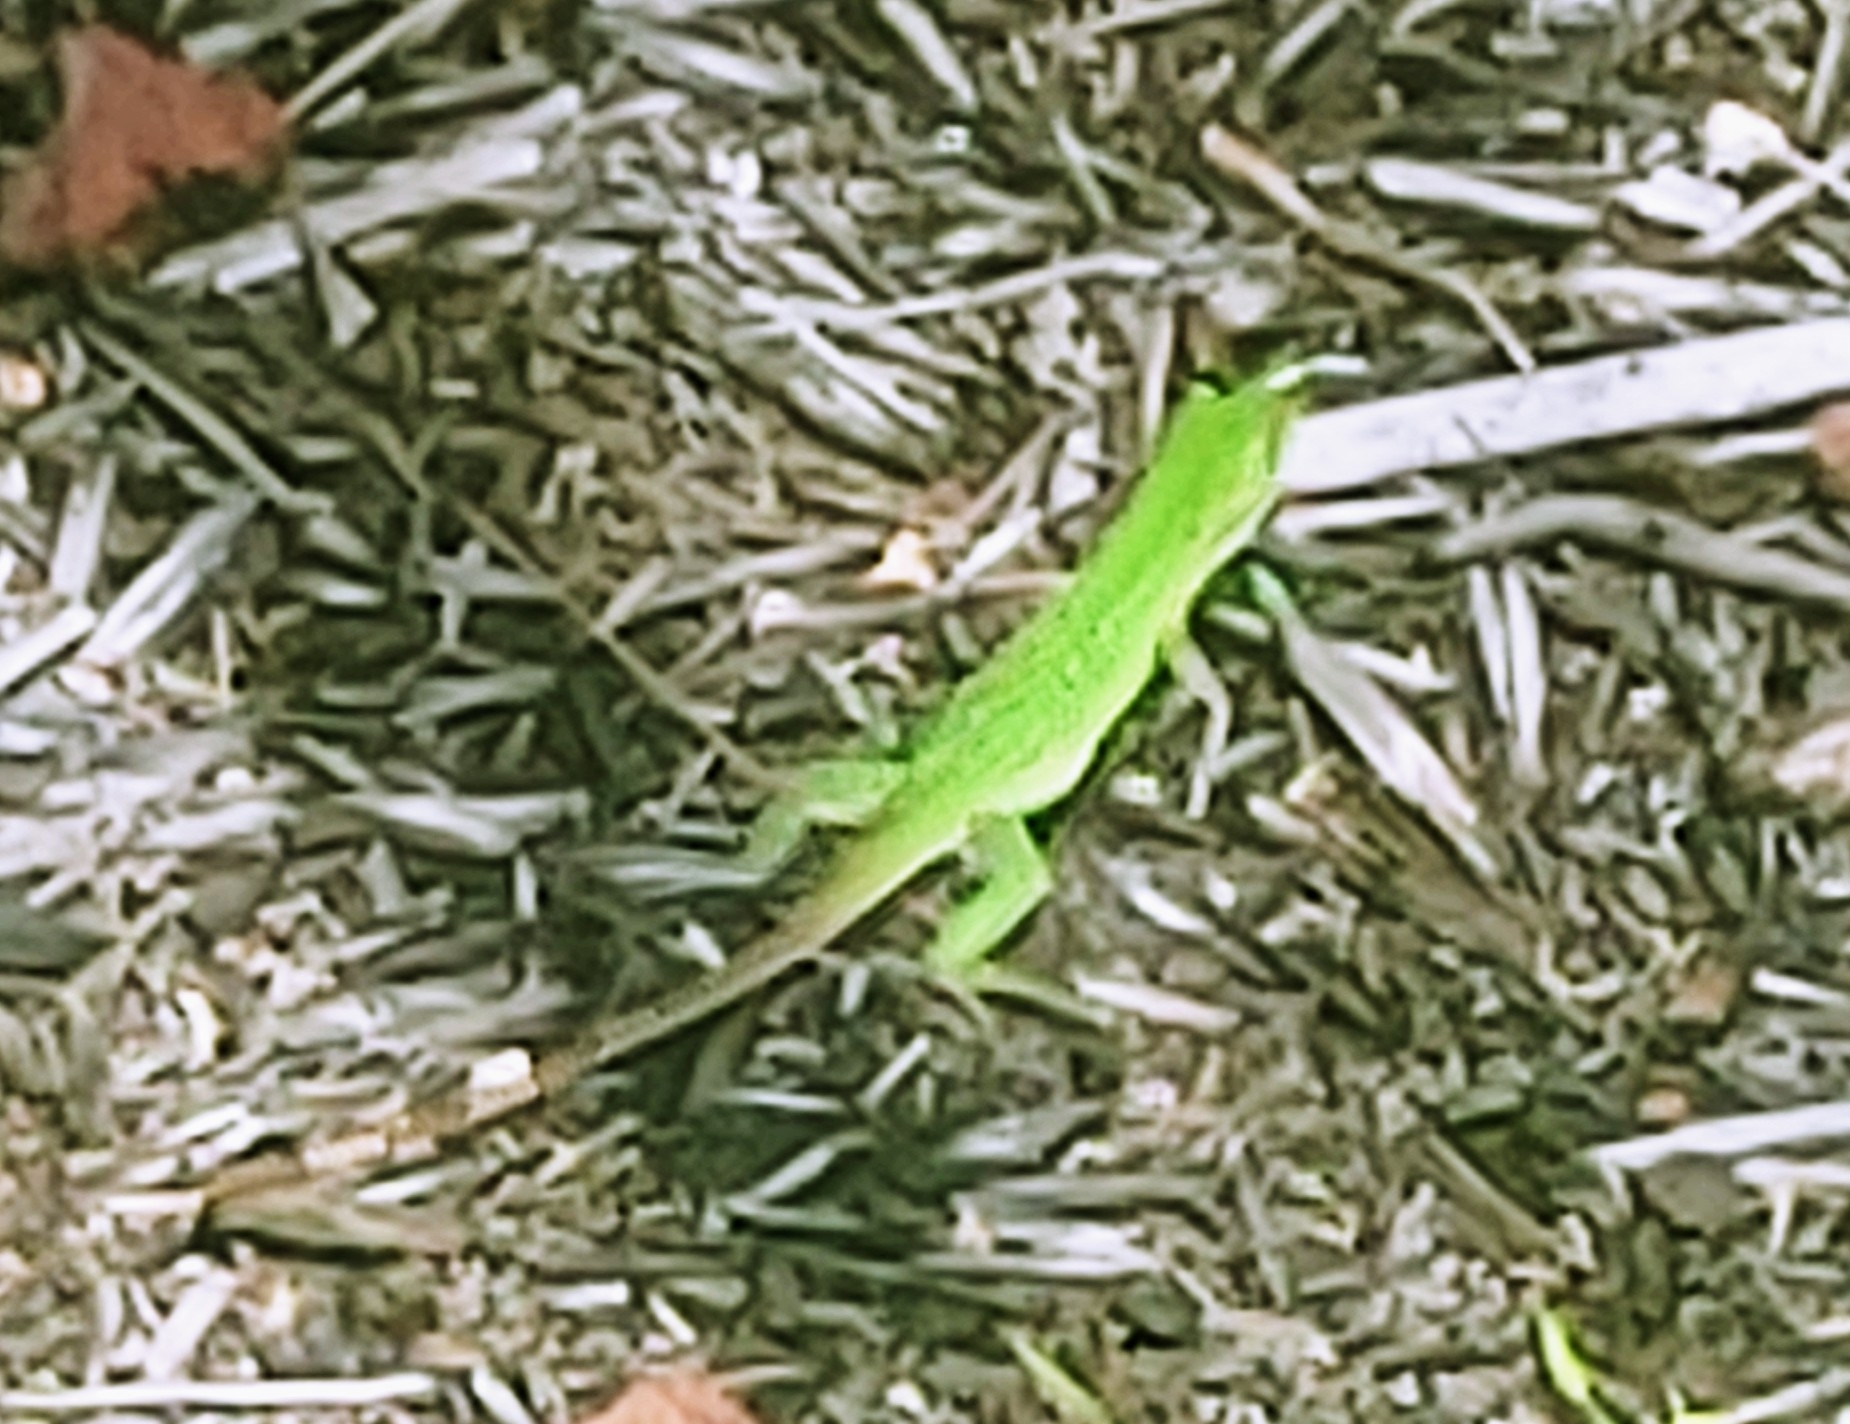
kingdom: Animalia
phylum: Chordata
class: Squamata
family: Iguanidae
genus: Ctenosaura
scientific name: Ctenosaura similis
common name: Black spiny-tailed iguana
